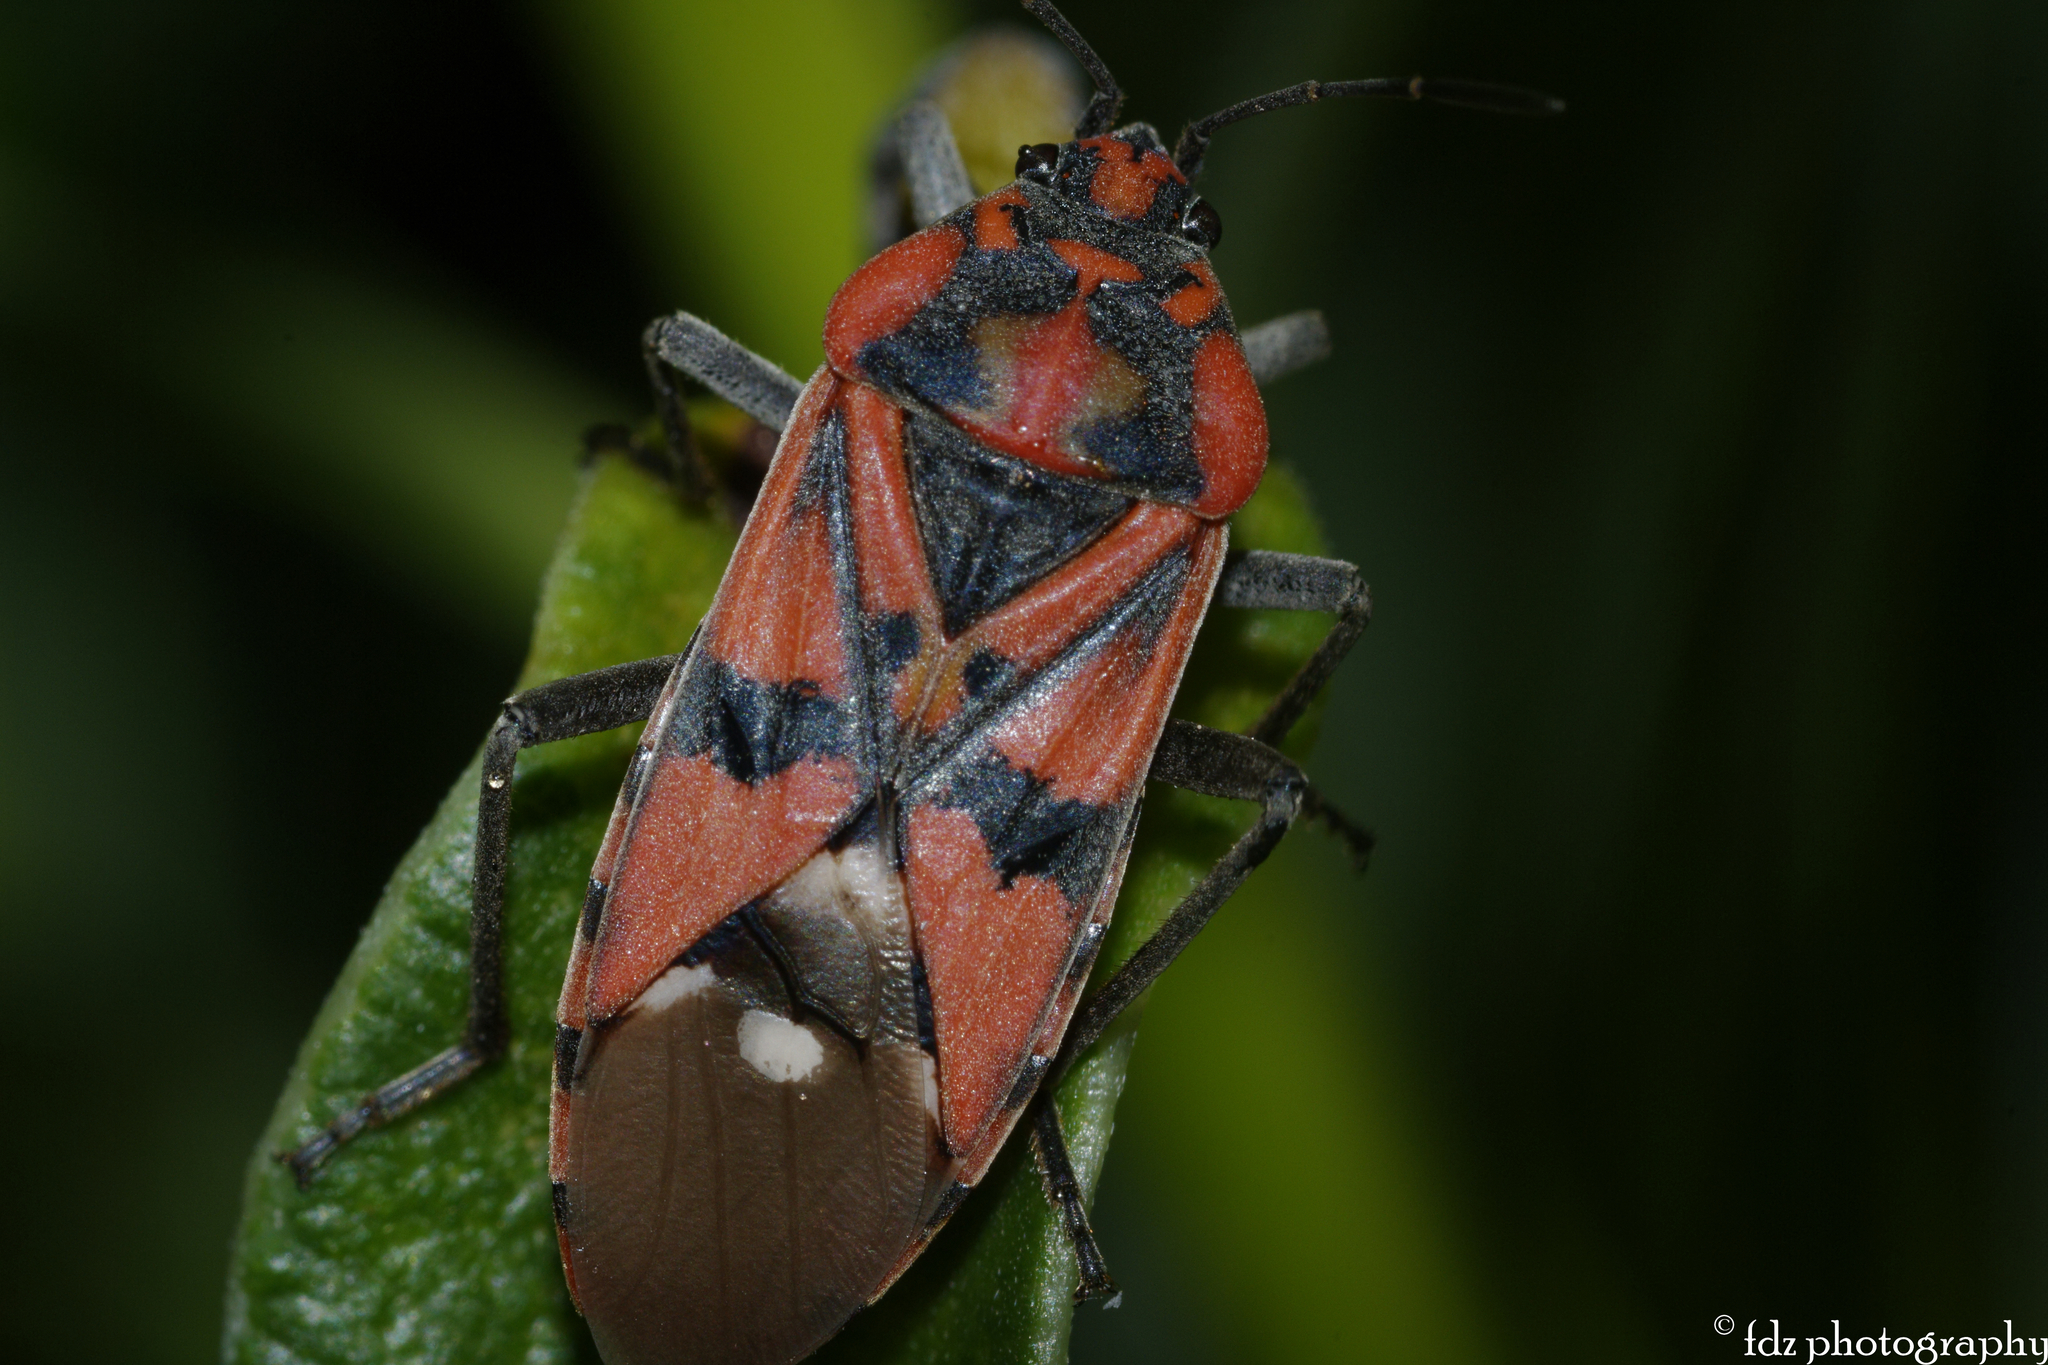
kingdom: Animalia
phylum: Arthropoda
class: Insecta
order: Hemiptera
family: Lygaeidae
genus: Spilostethus
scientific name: Spilostethus pandurus
